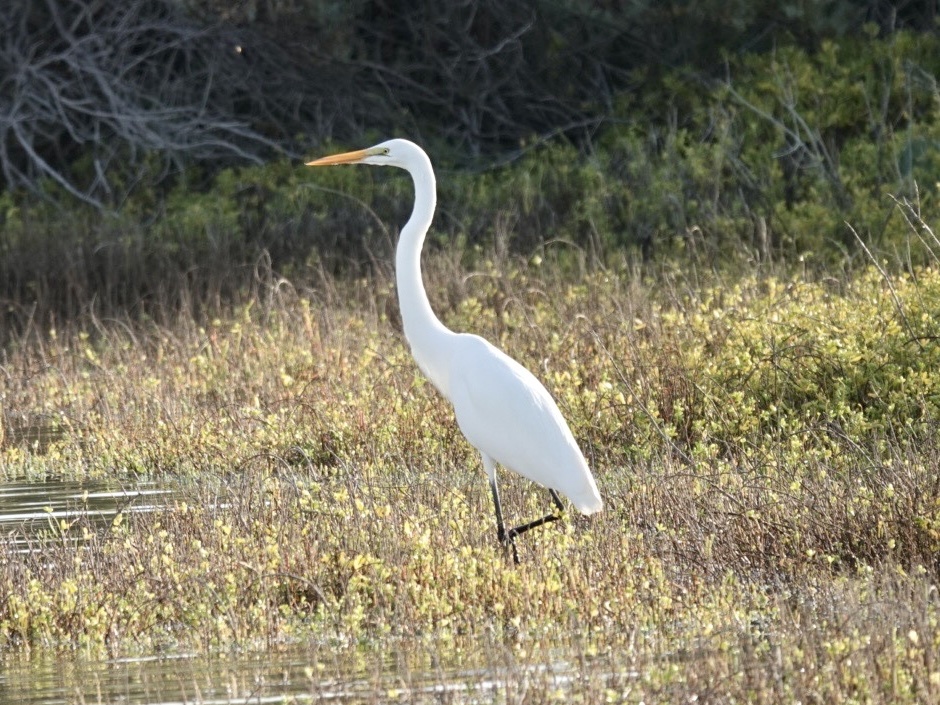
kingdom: Animalia
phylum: Chordata
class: Aves
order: Pelecaniformes
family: Ardeidae
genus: Ardea
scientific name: Ardea alba
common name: Great egret
